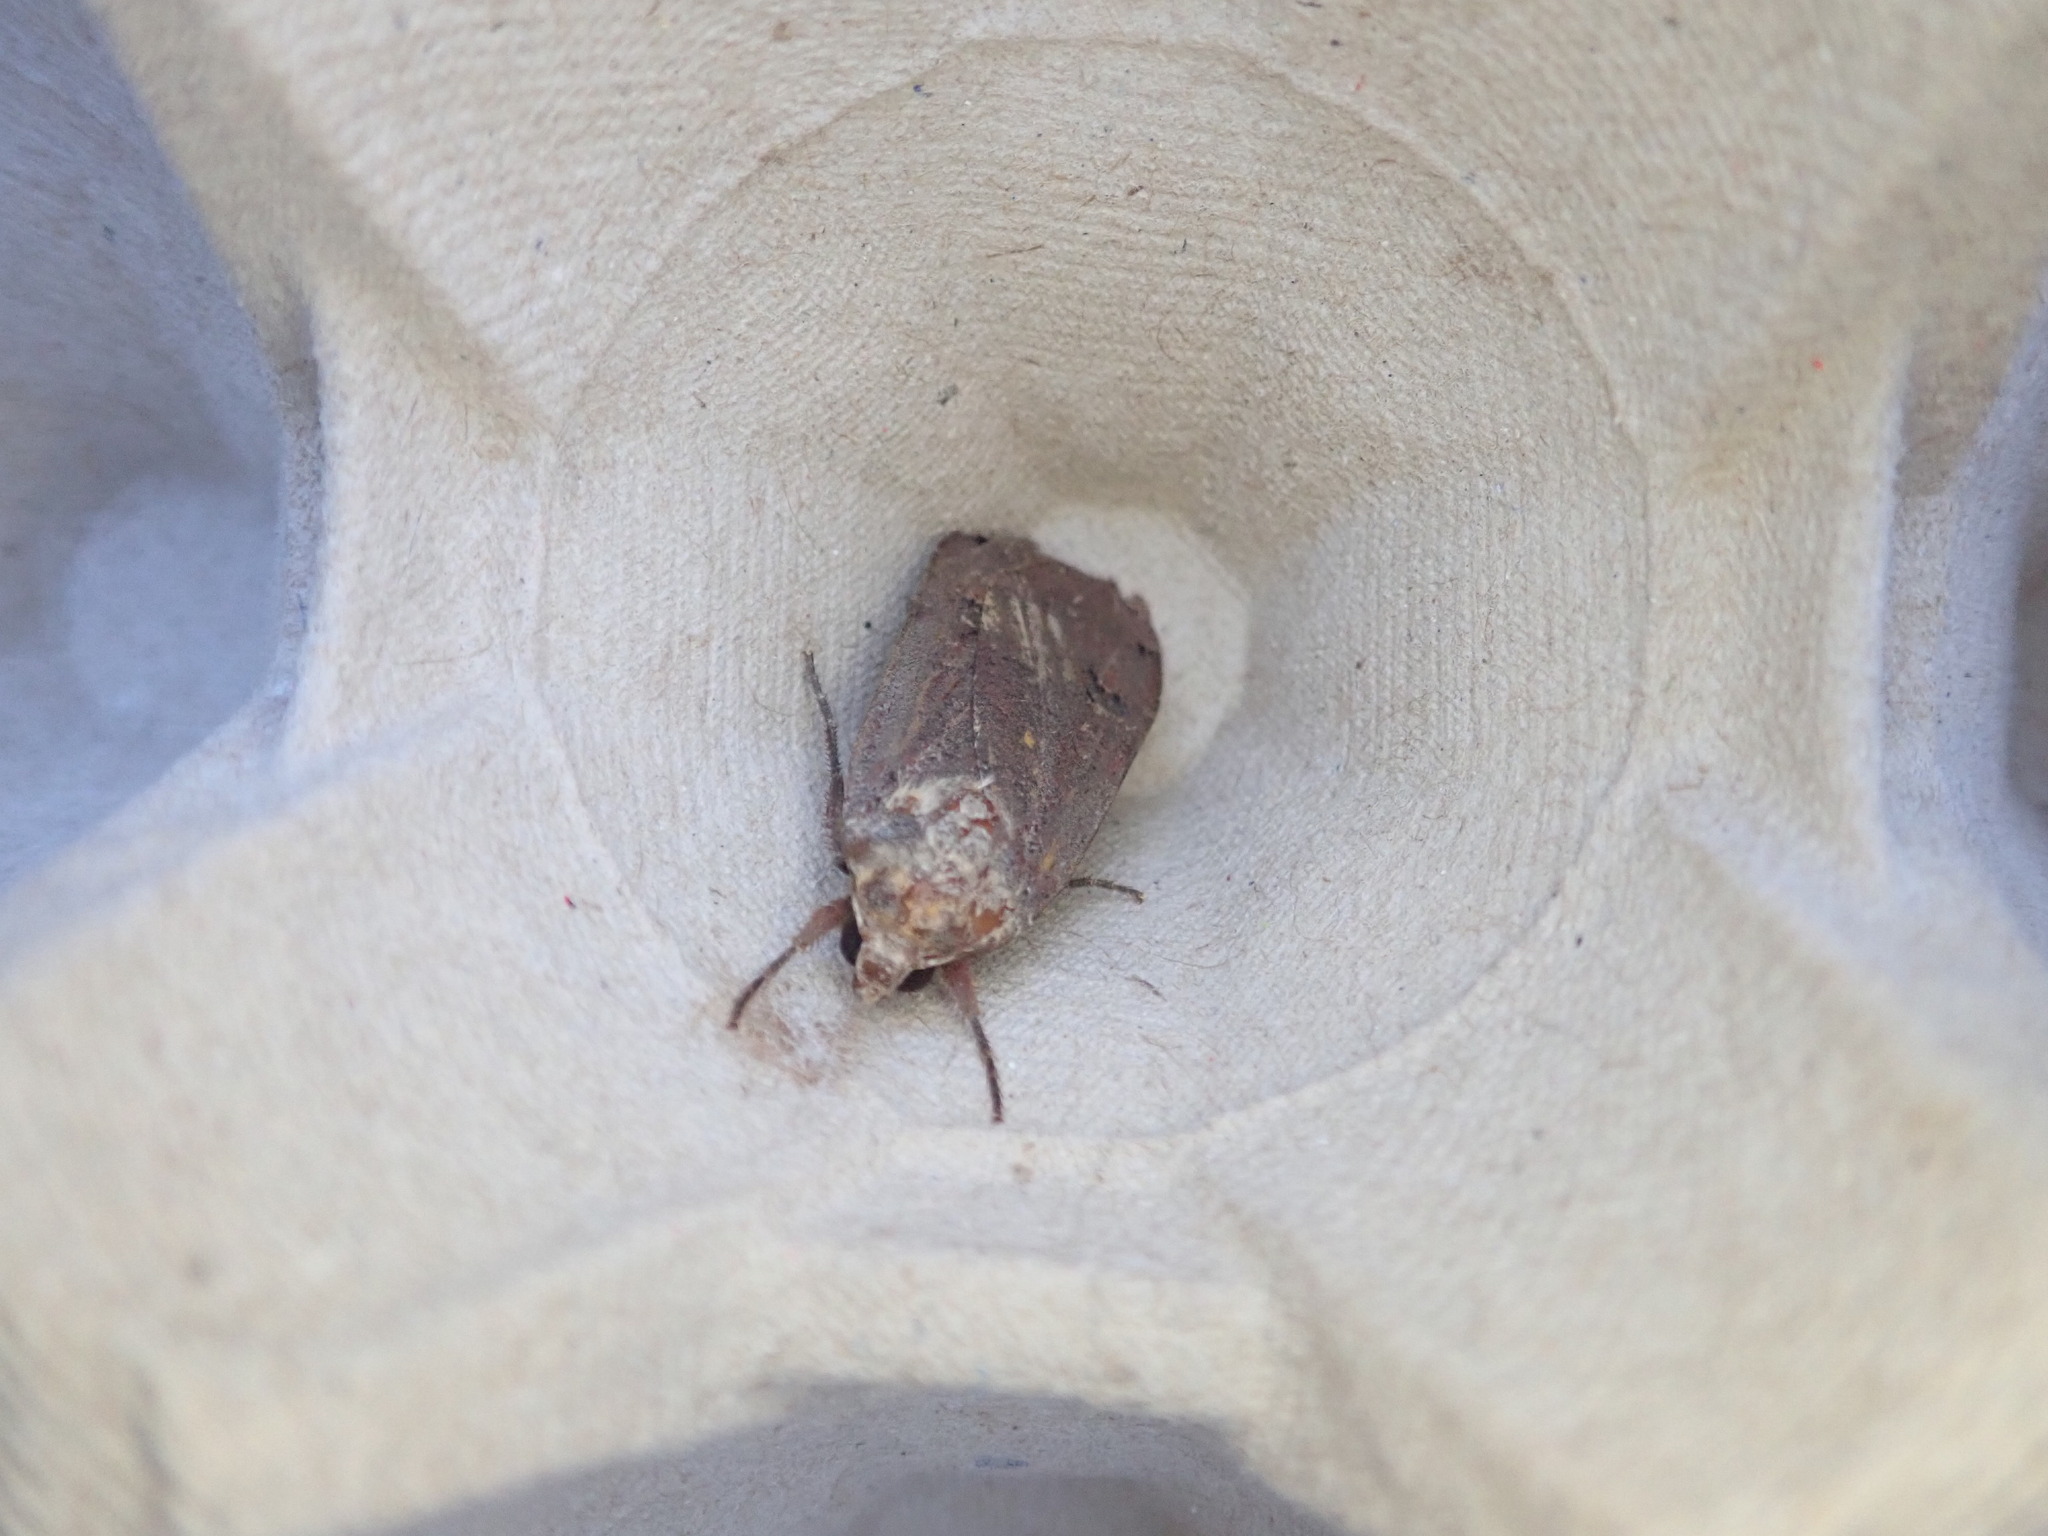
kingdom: Animalia
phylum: Arthropoda
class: Insecta
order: Lepidoptera
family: Noctuidae
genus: Noctua
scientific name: Noctua pronuba
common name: Large yellow underwing
